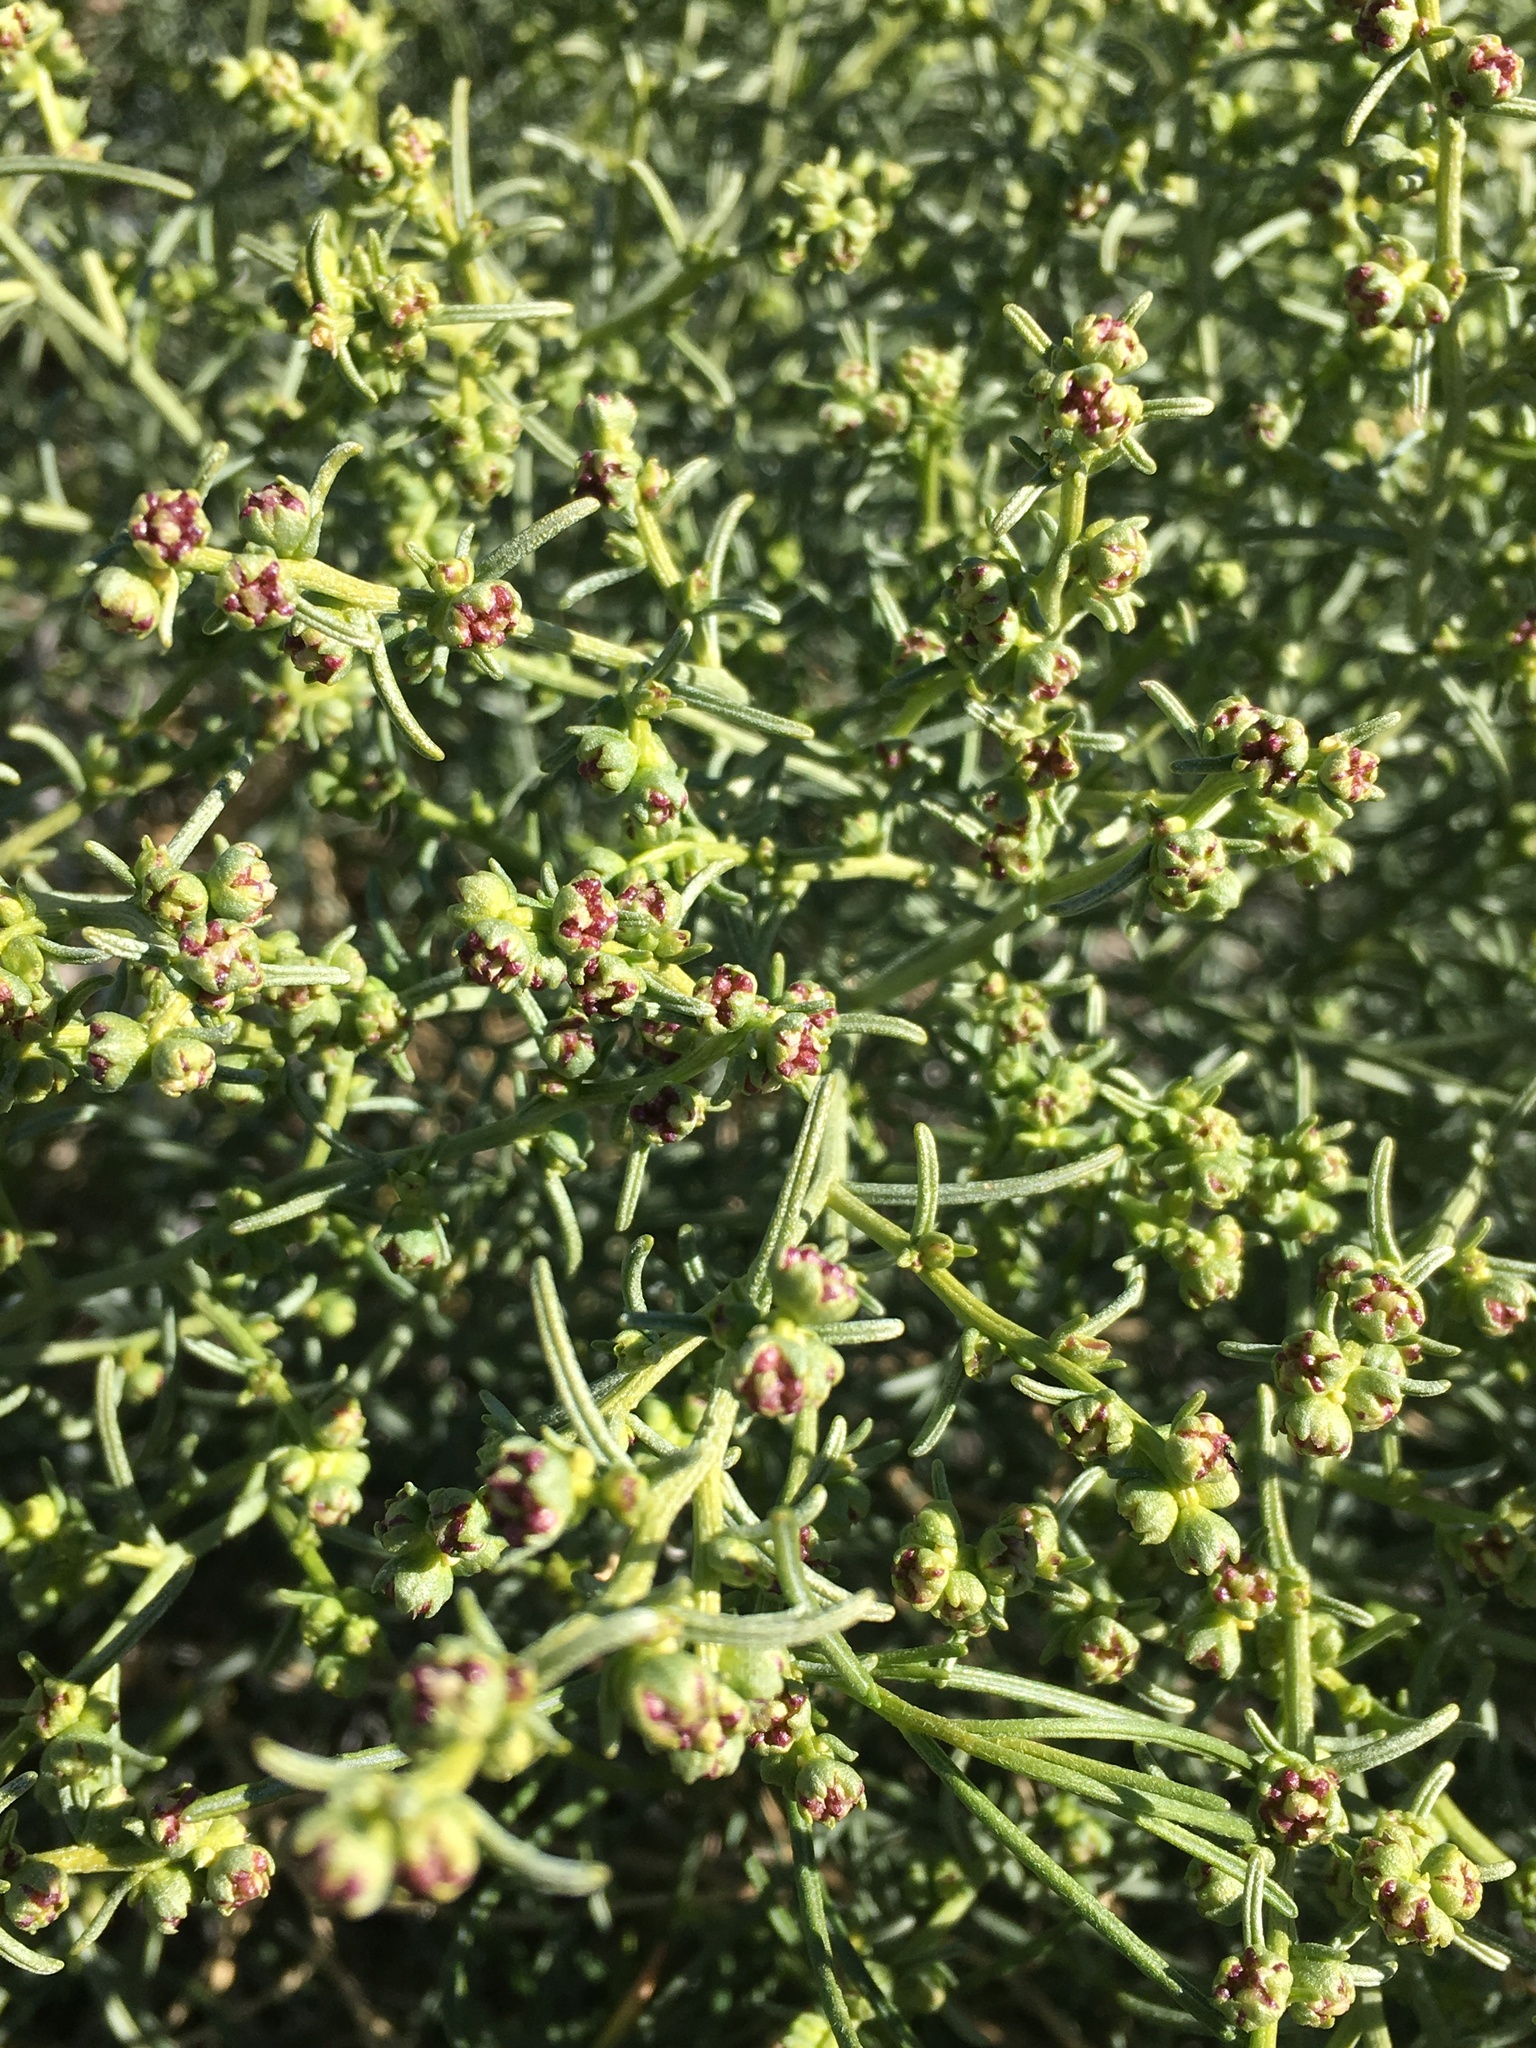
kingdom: Plantae
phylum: Tracheophyta
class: Magnoliopsida
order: Asterales
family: Asteraceae
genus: Ambrosia
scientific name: Ambrosia salsola
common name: Burrobrush
